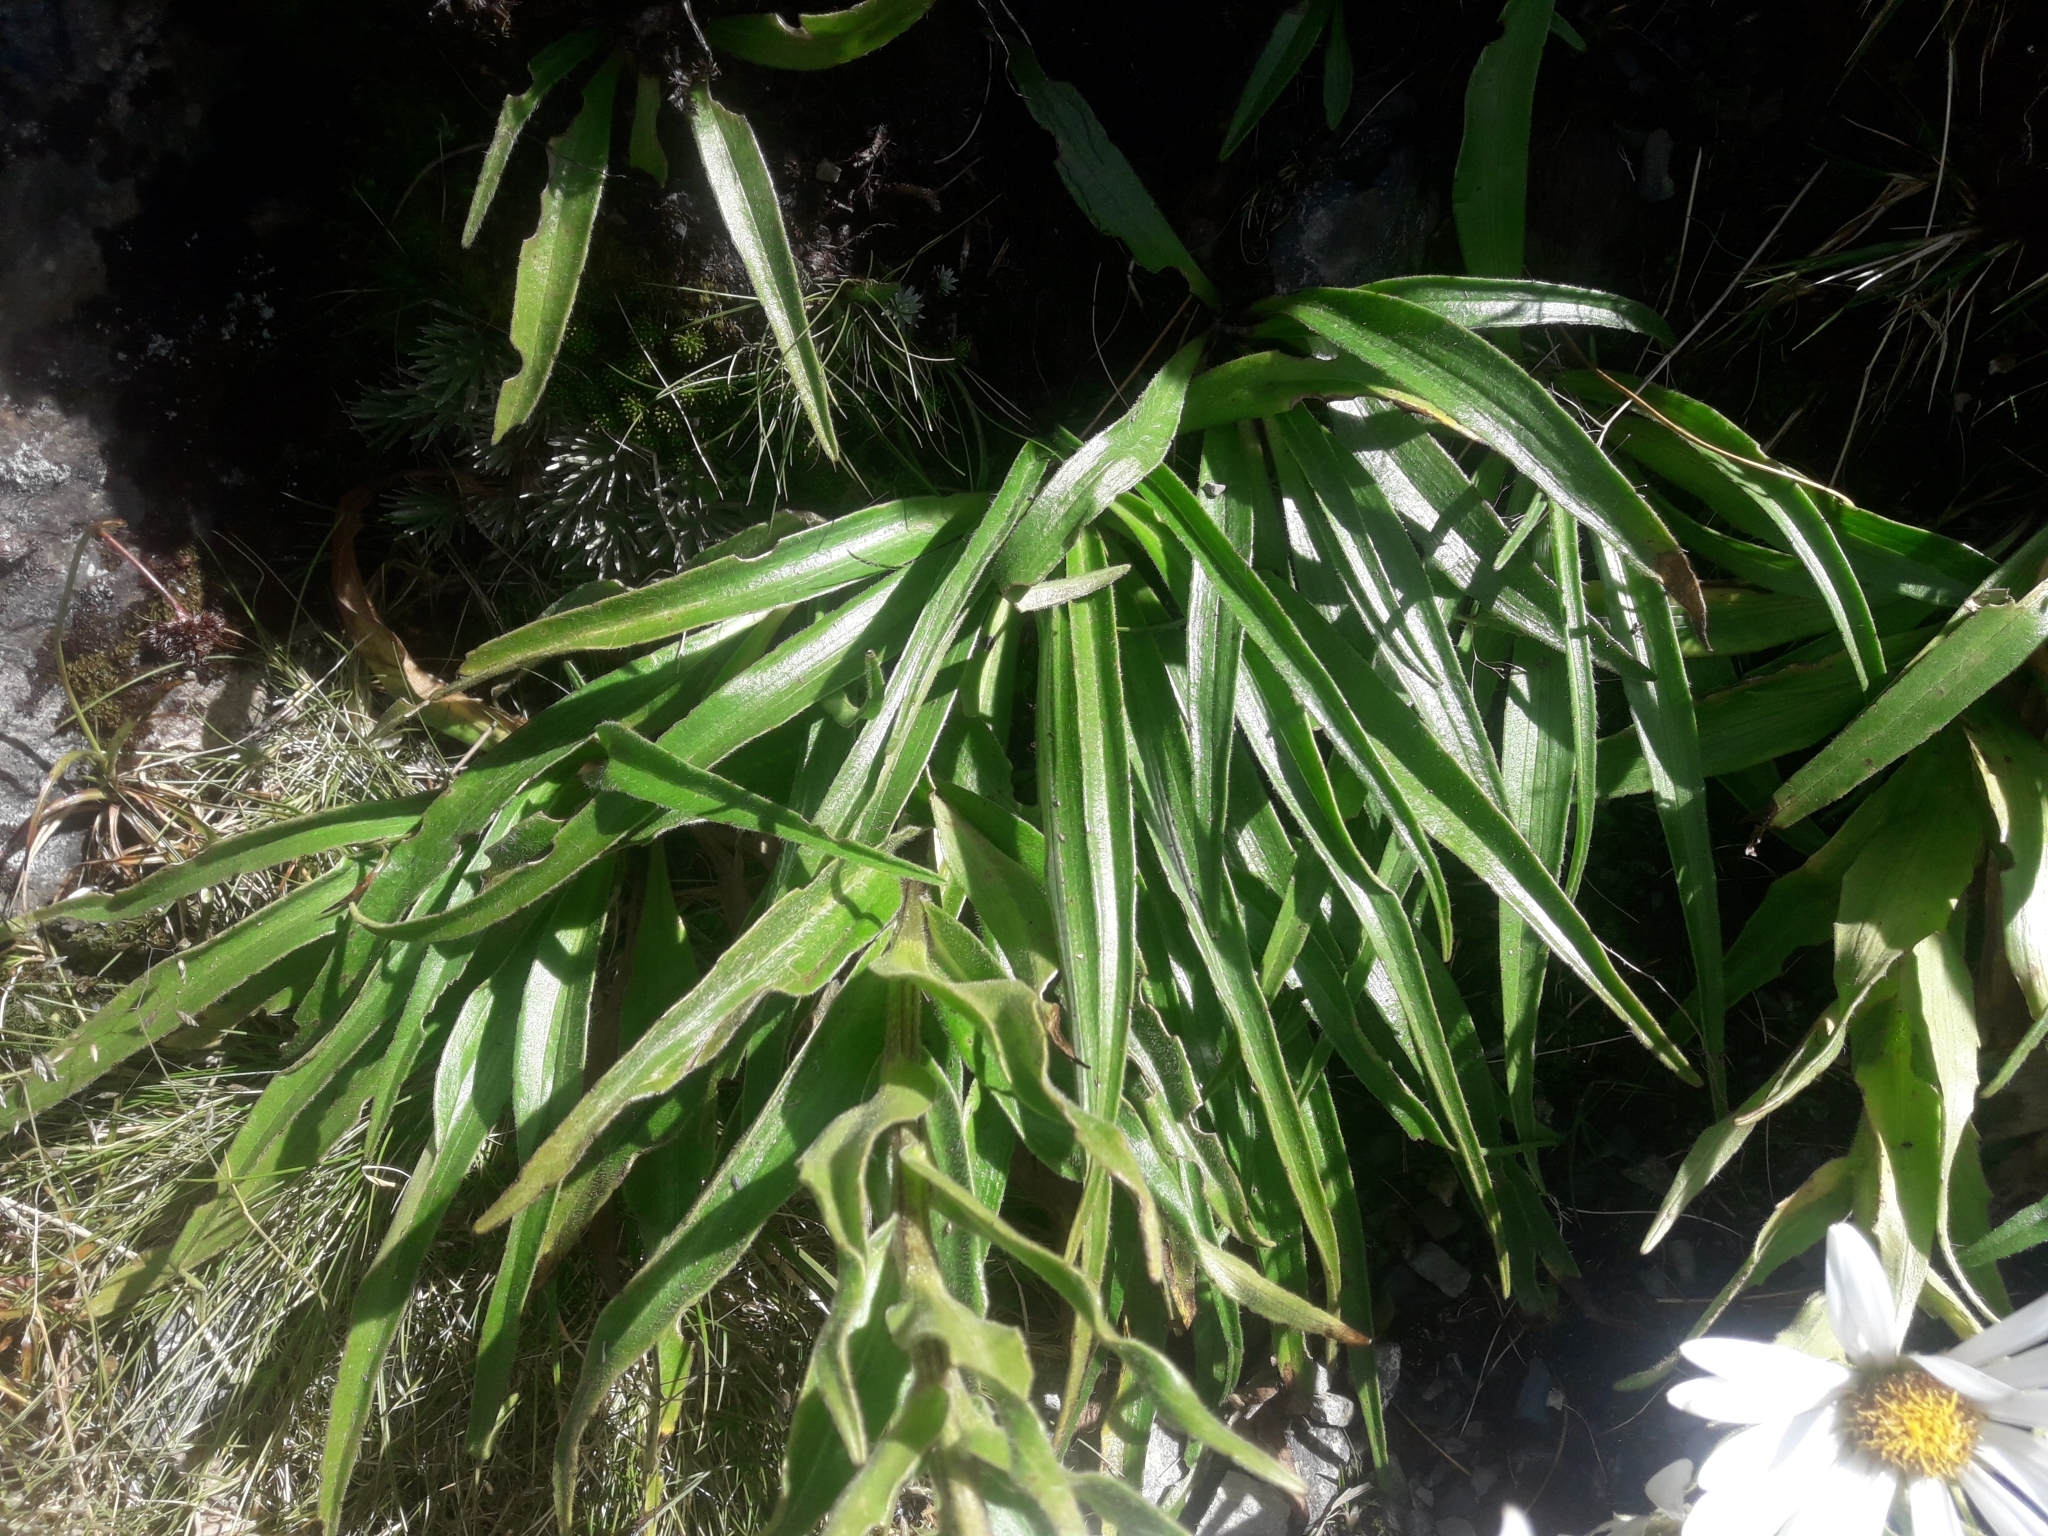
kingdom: Plantae
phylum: Tracheophyta
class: Magnoliopsida
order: Asterales
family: Asteraceae
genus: Dolichoglottis
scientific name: Dolichoglottis scorzoneroides
